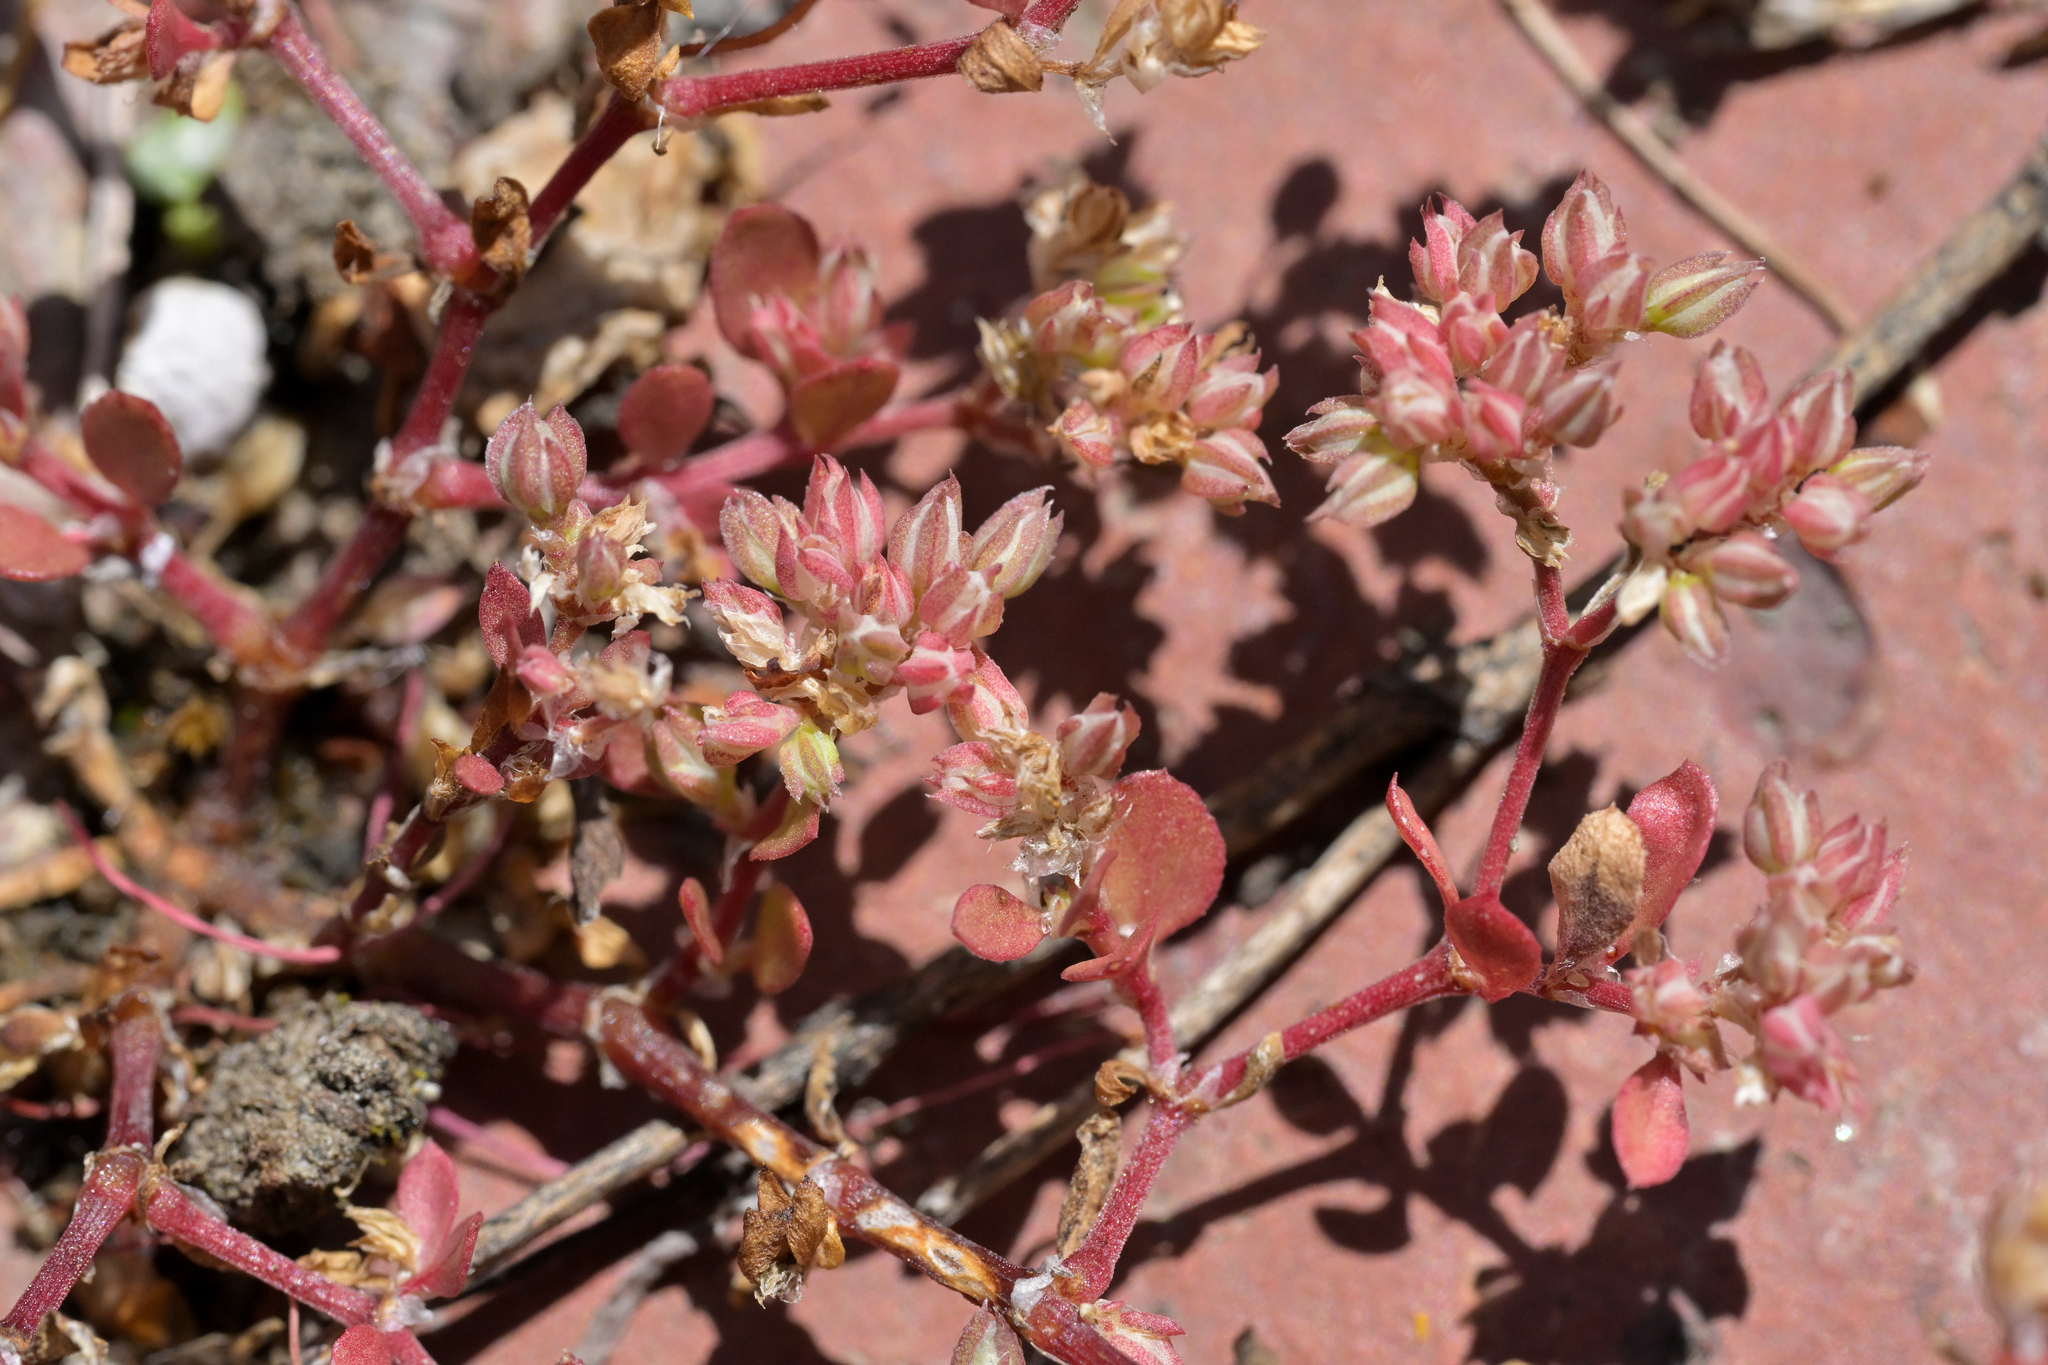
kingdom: Plantae
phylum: Tracheophyta
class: Magnoliopsida
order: Caryophyllales
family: Caryophyllaceae
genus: Polycarpon
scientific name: Polycarpon tetraphyllum
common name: Four-leaved all-seed
